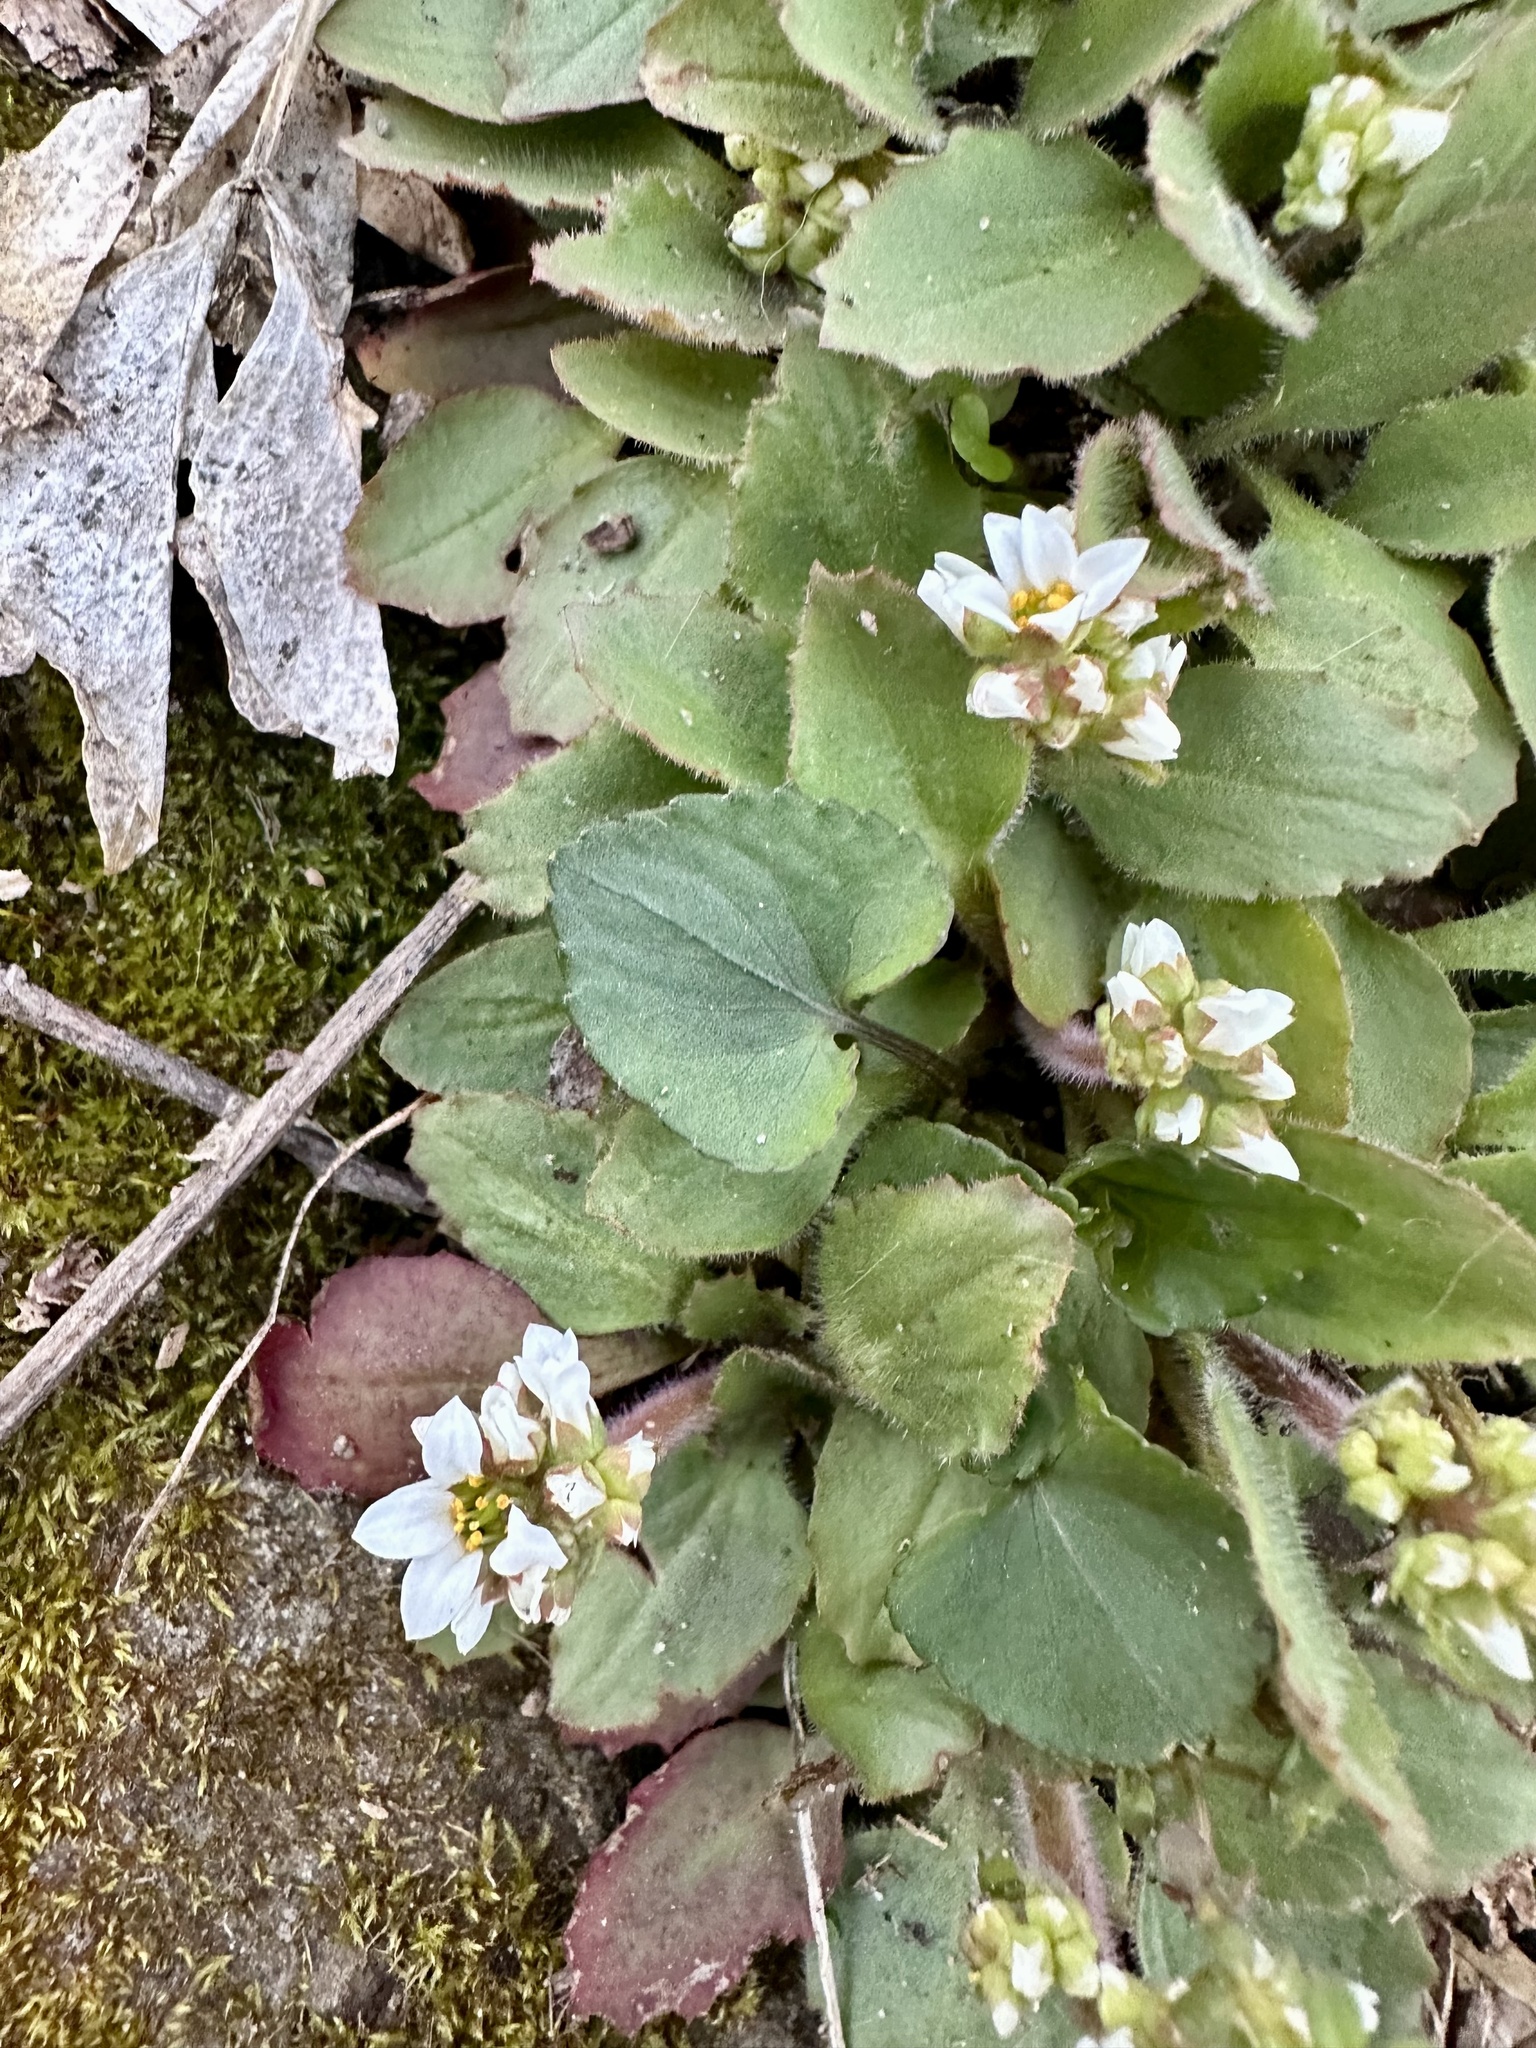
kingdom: Plantae
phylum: Tracheophyta
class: Magnoliopsida
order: Saxifragales
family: Saxifragaceae
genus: Micranthes
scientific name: Micranthes virginiensis
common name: Early saxifrage
